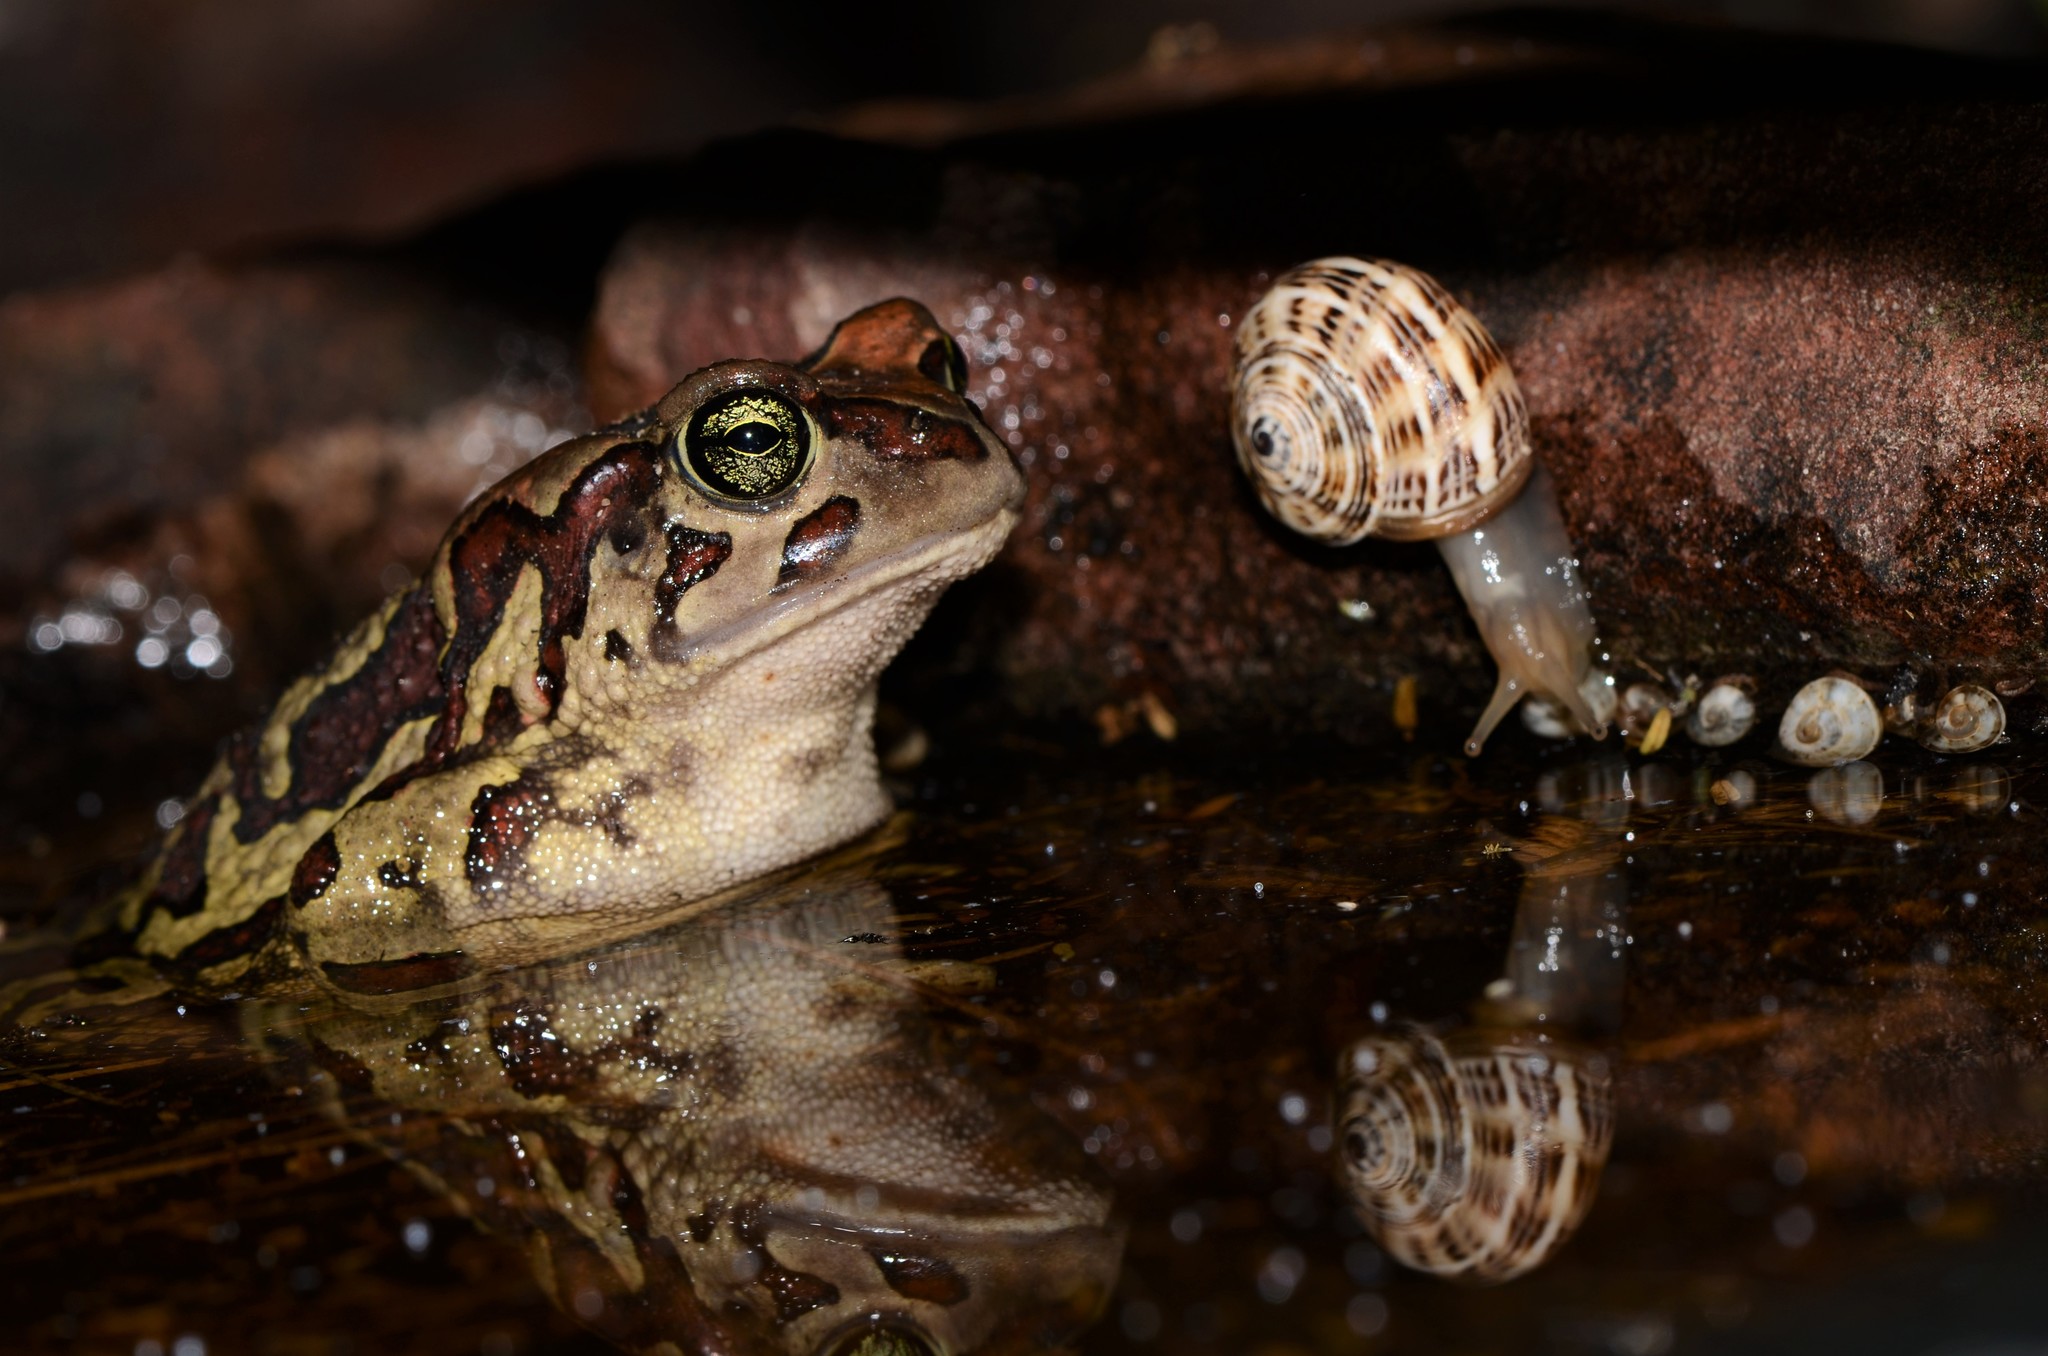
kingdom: Animalia
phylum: Chordata
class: Amphibia
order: Anura
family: Bufonidae
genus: Sclerophrys
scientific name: Sclerophrys pantherina
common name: Panther toad
